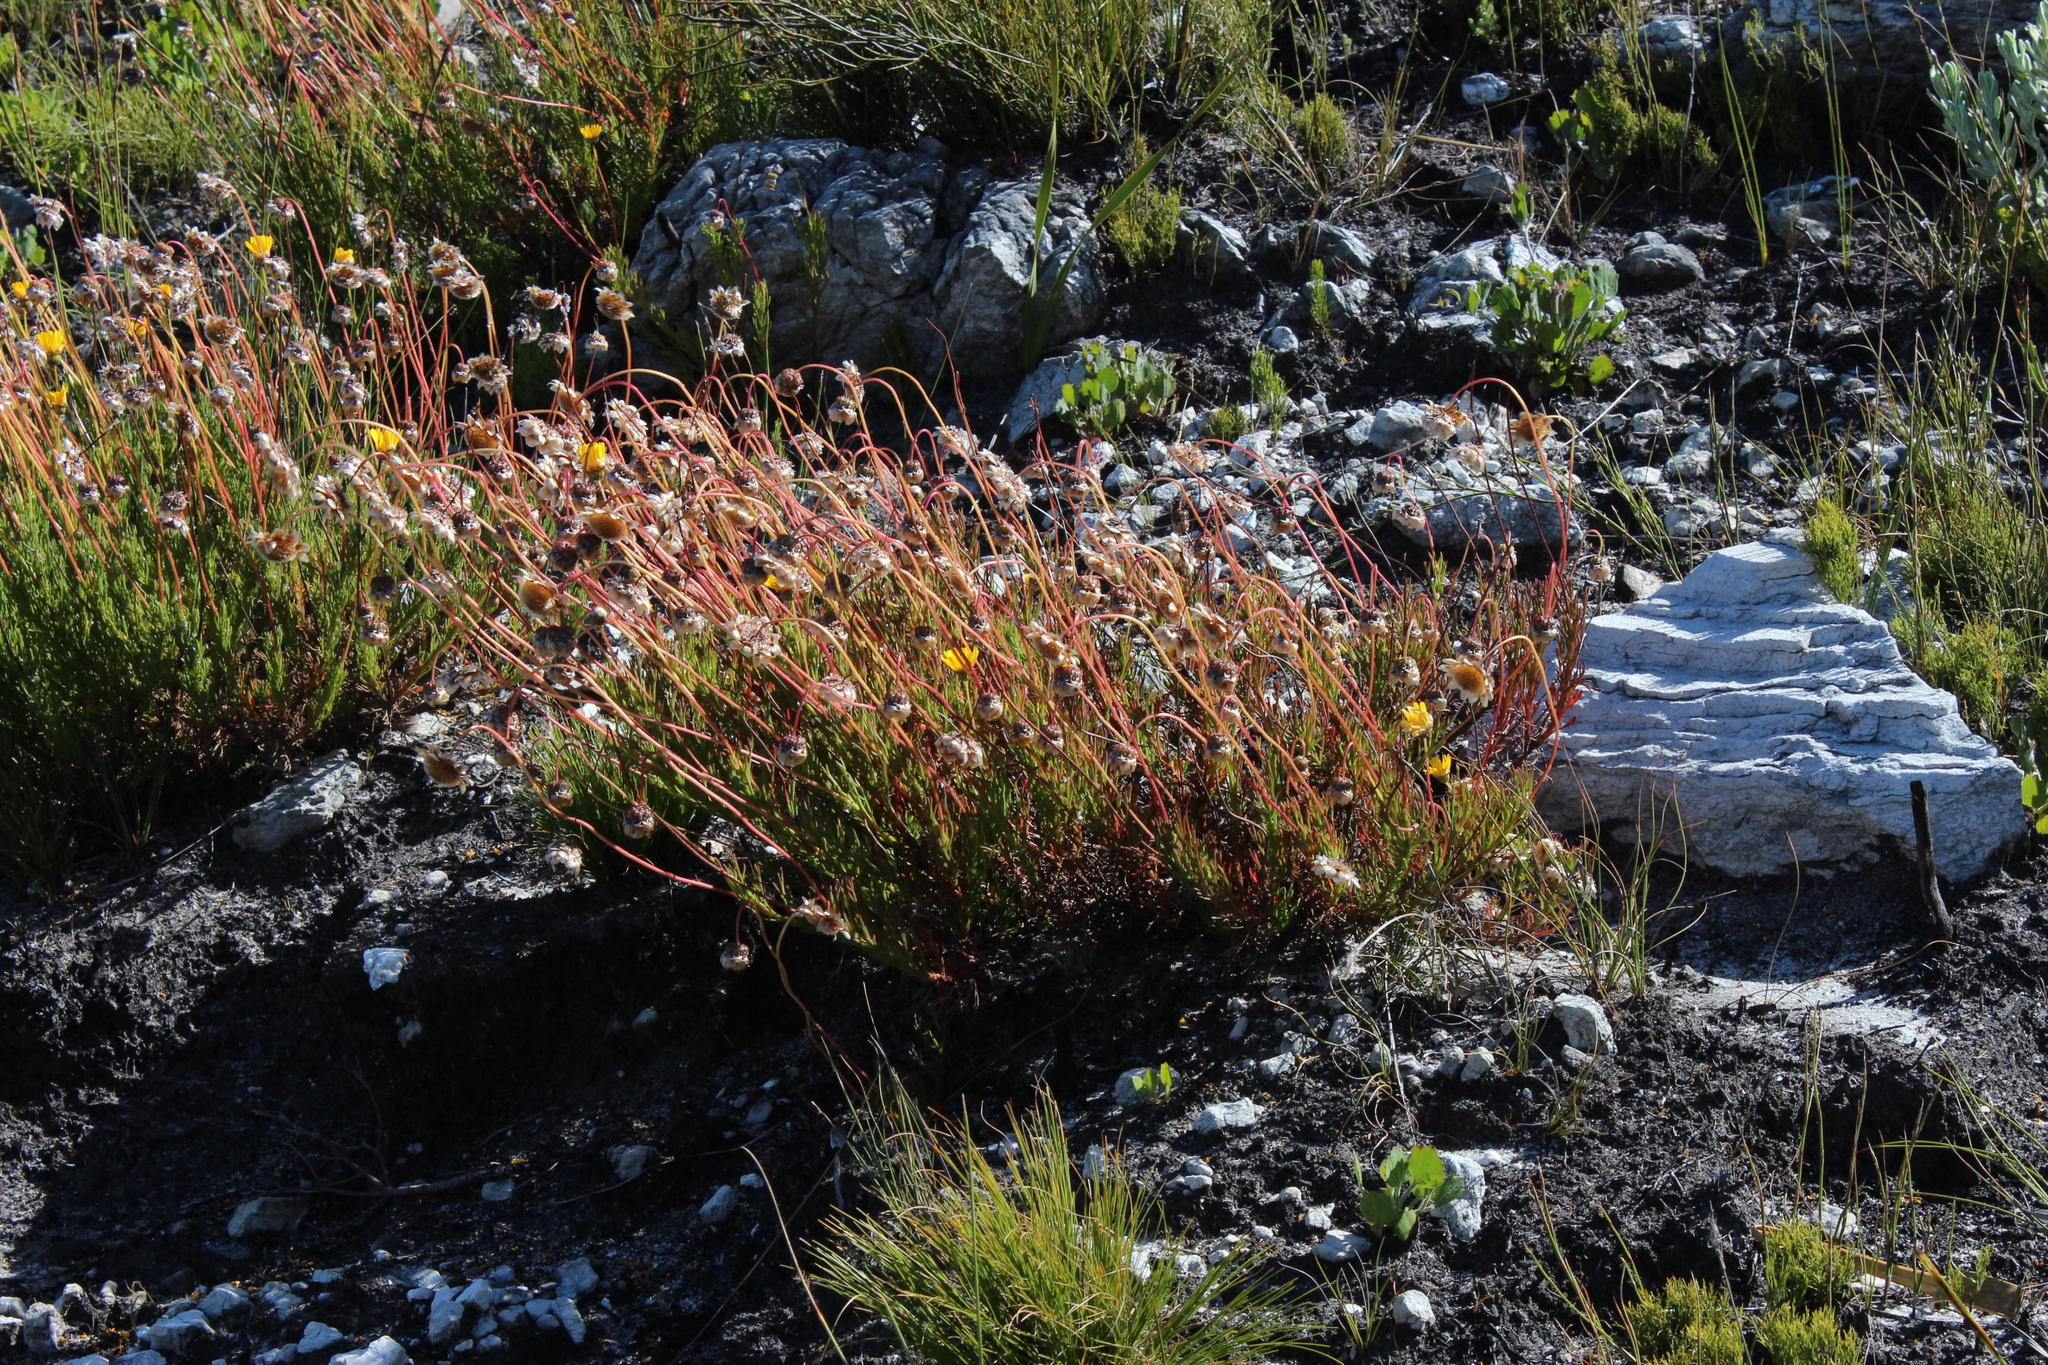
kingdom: Plantae
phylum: Tracheophyta
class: Magnoliopsida
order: Asterales
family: Asteraceae
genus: Ursinia
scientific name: Ursinia paleacea
